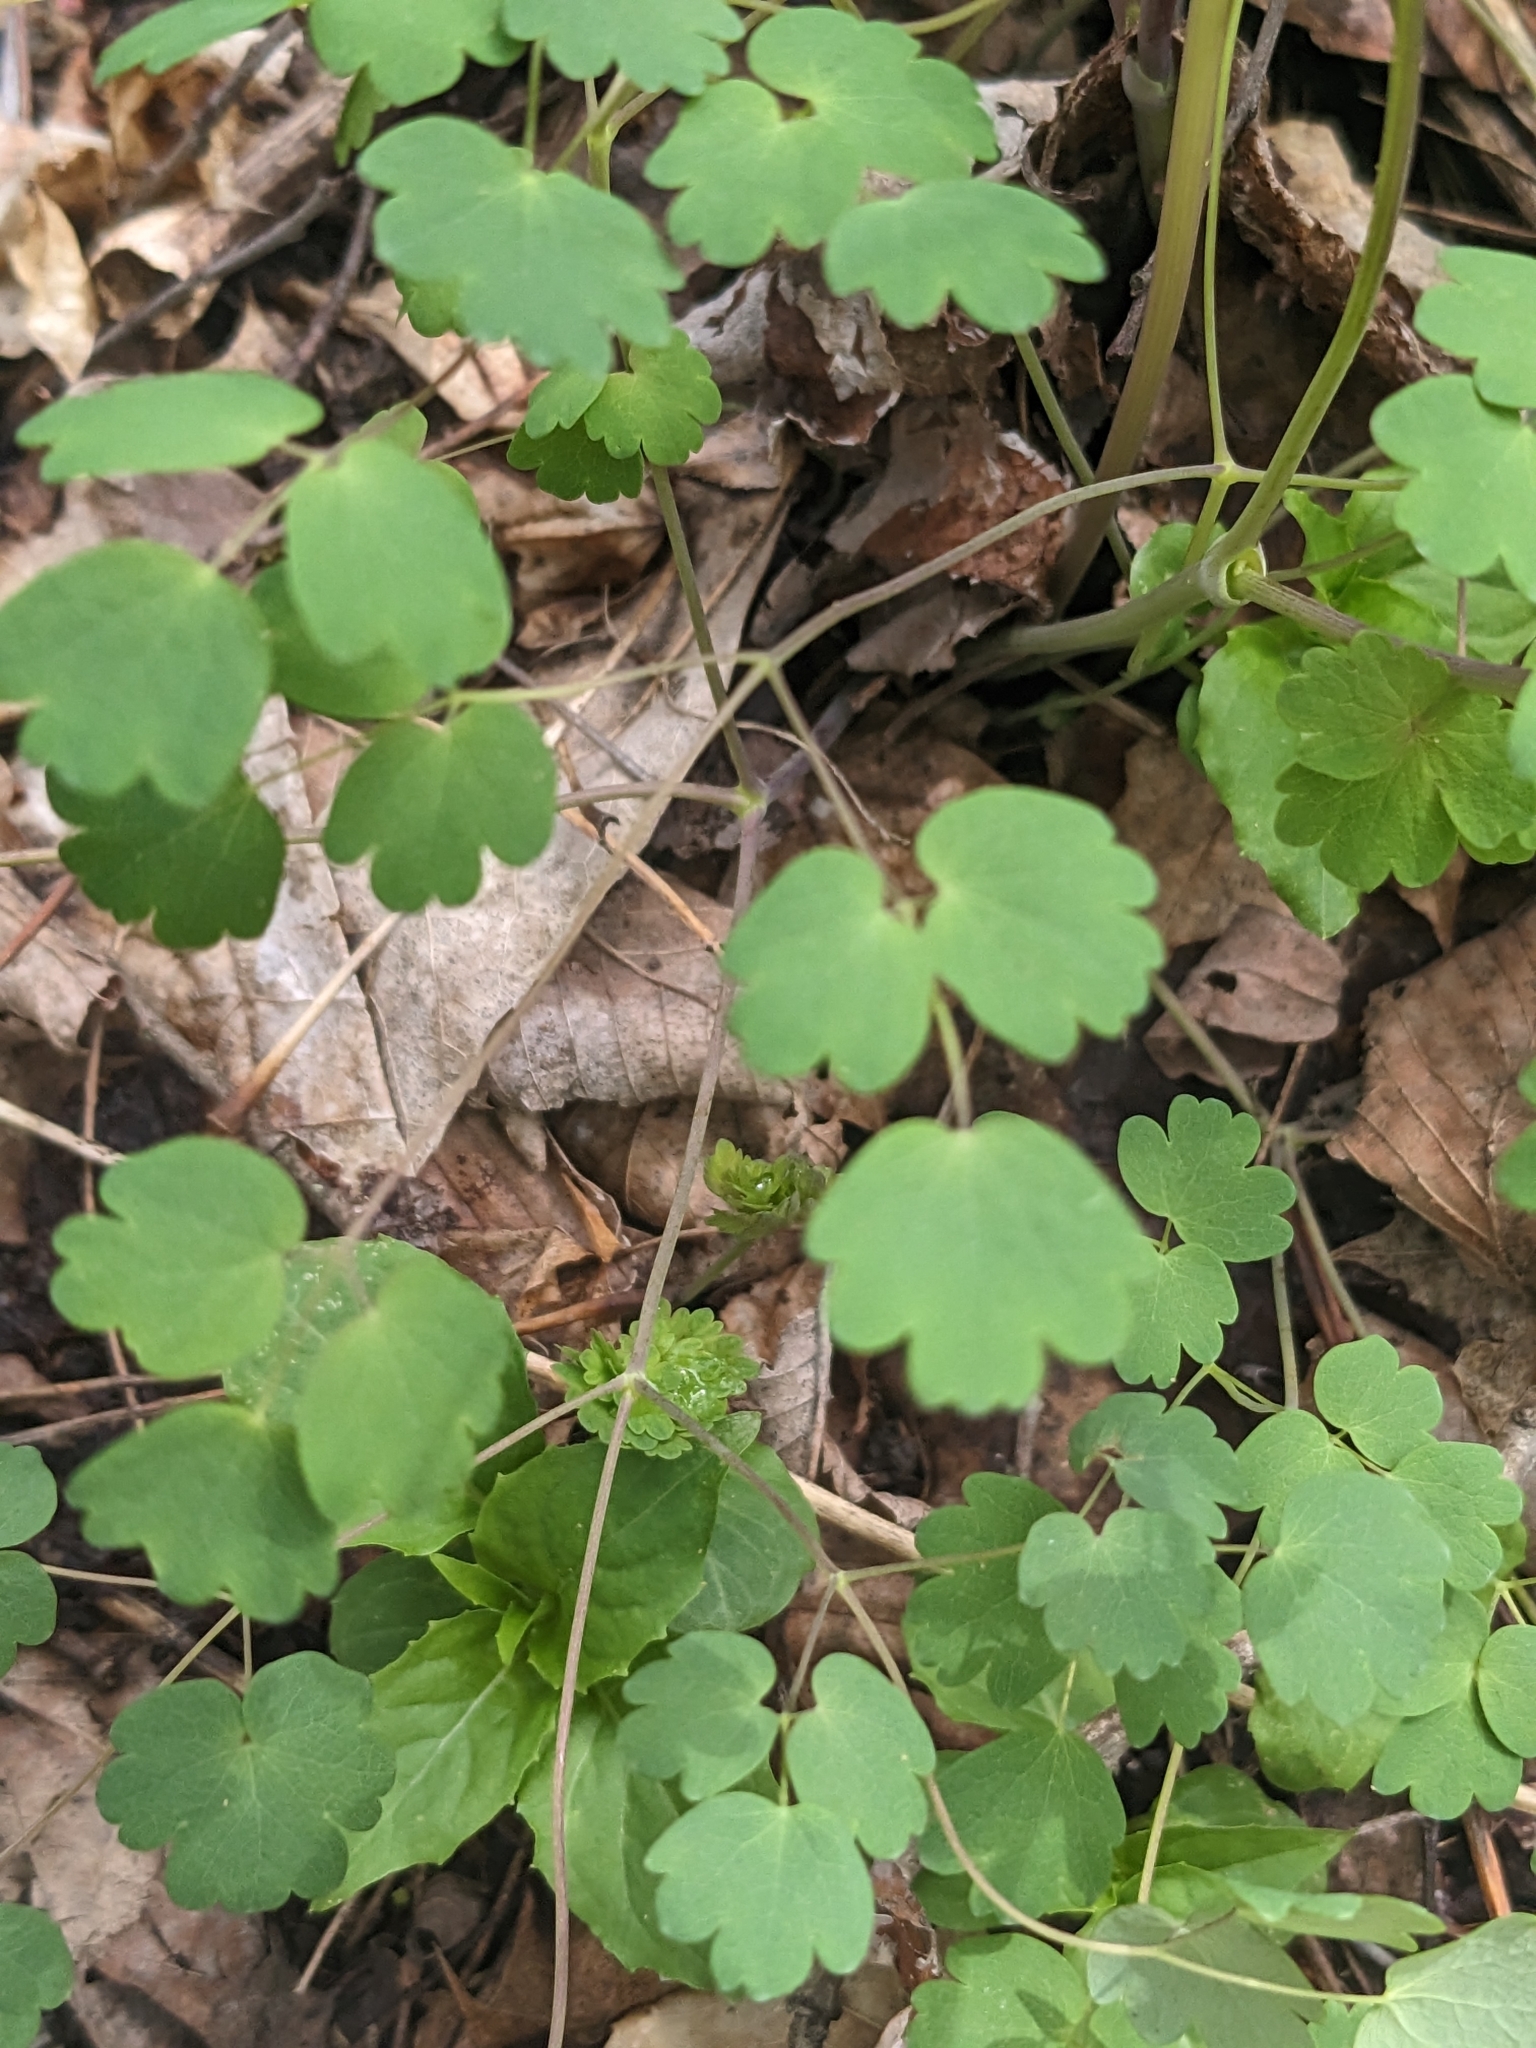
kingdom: Plantae
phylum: Tracheophyta
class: Magnoliopsida
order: Ranunculales
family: Ranunculaceae
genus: Thalictrum
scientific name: Thalictrum dioicum
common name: Early meadow-rue
